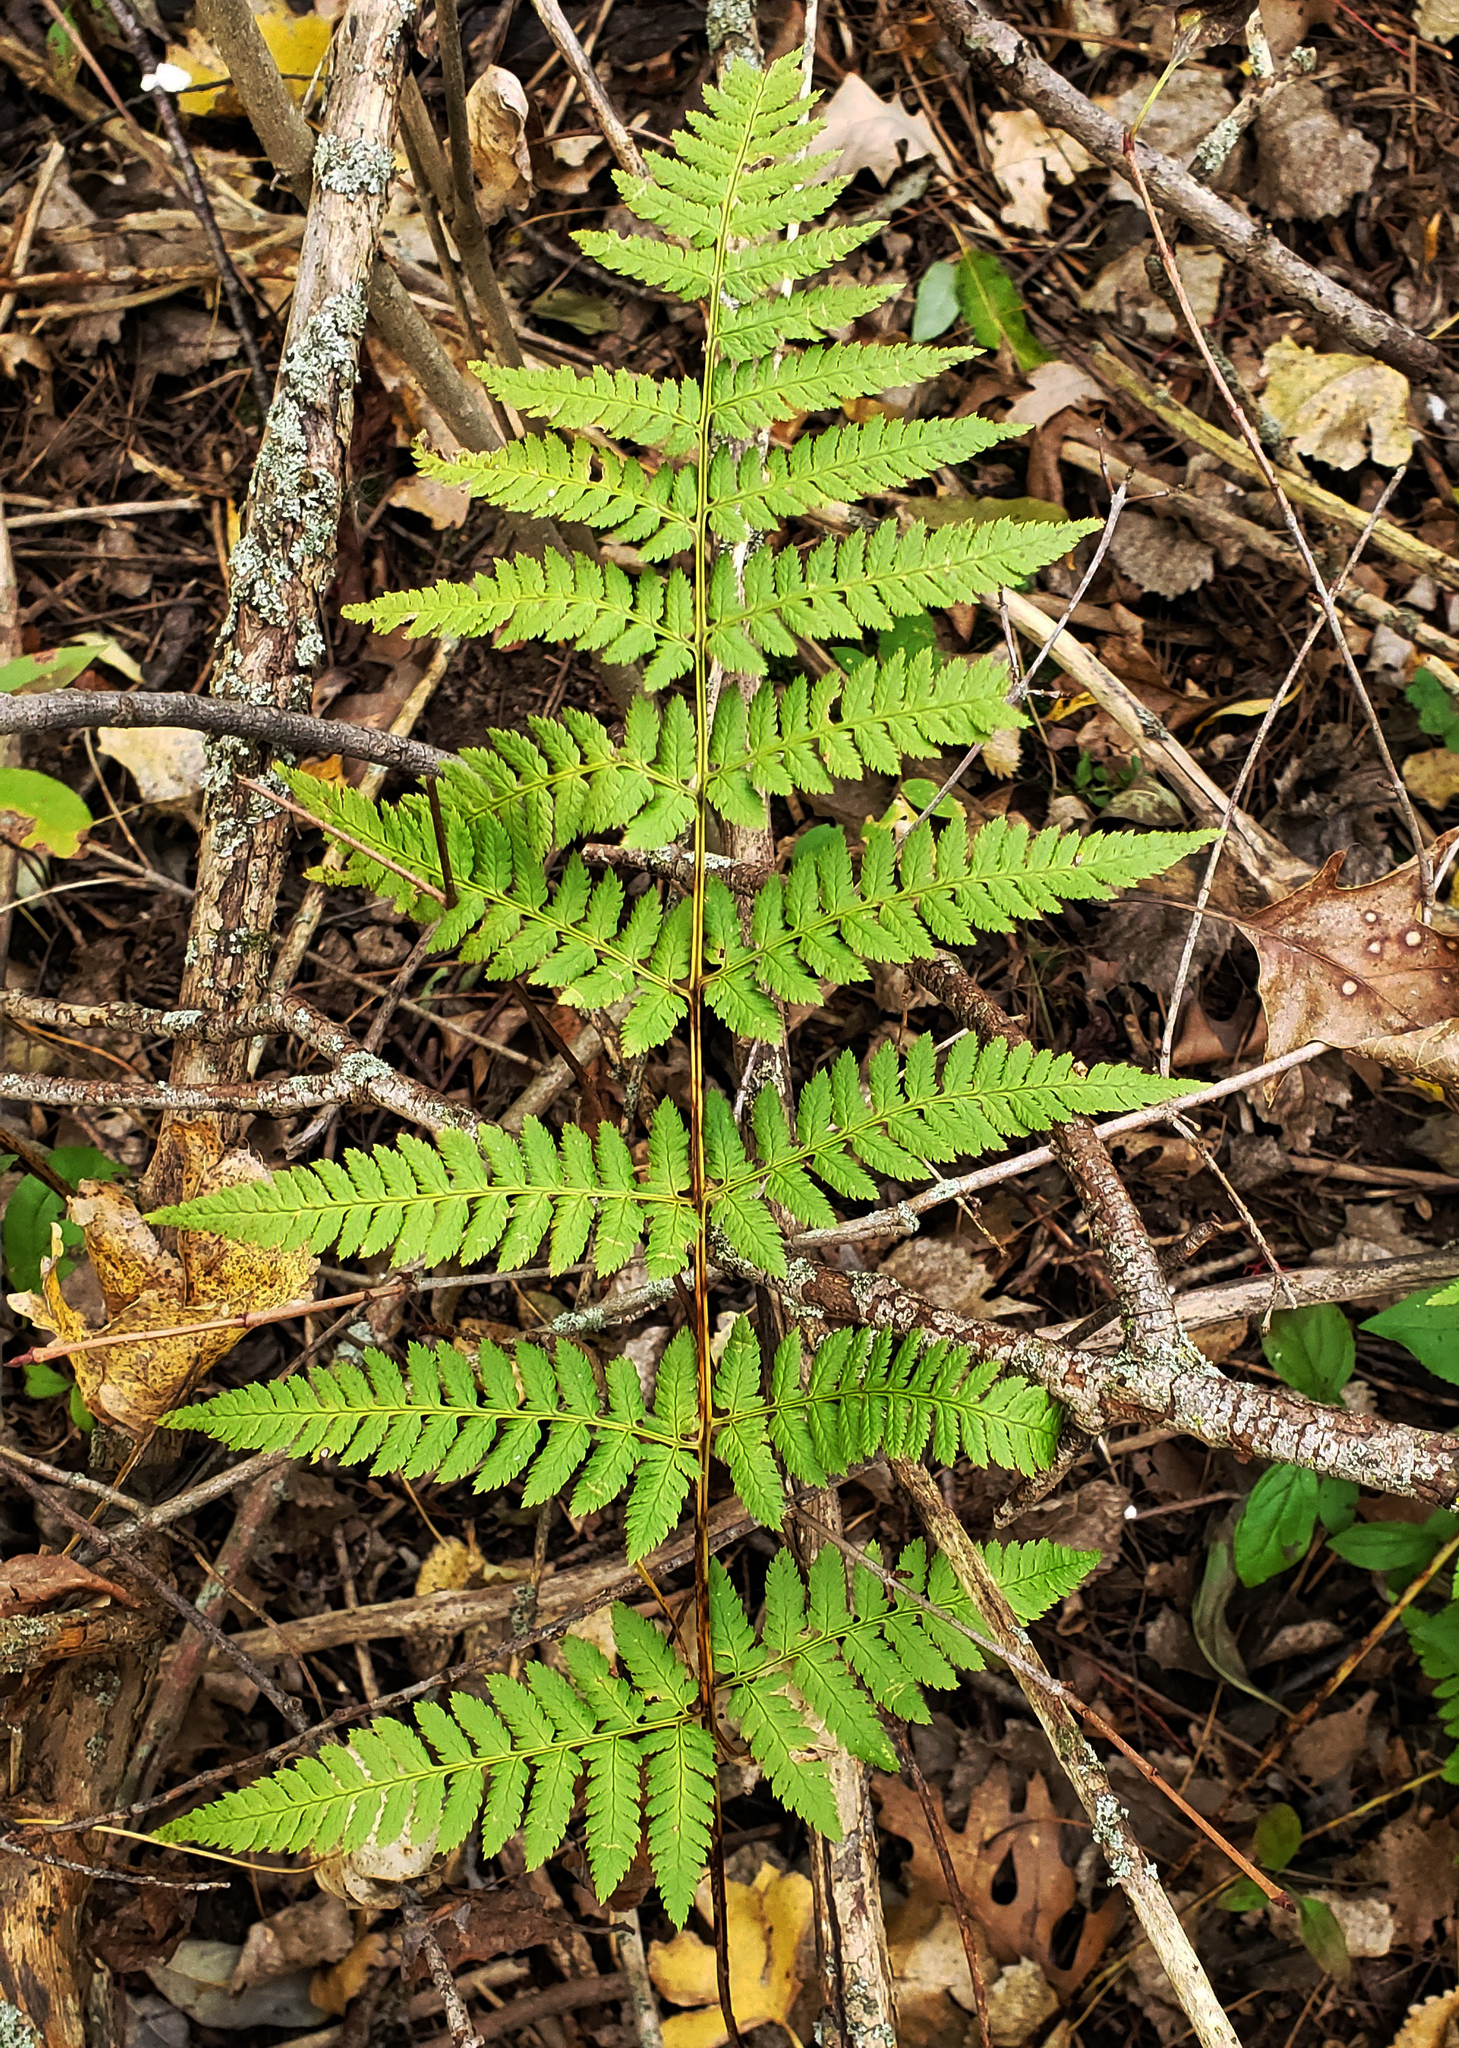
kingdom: Plantae
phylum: Tracheophyta
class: Polypodiopsida
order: Polypodiales
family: Dryopteridaceae
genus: Dryopteris
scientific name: Dryopteris carthusiana
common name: Narrow buckler-fern
